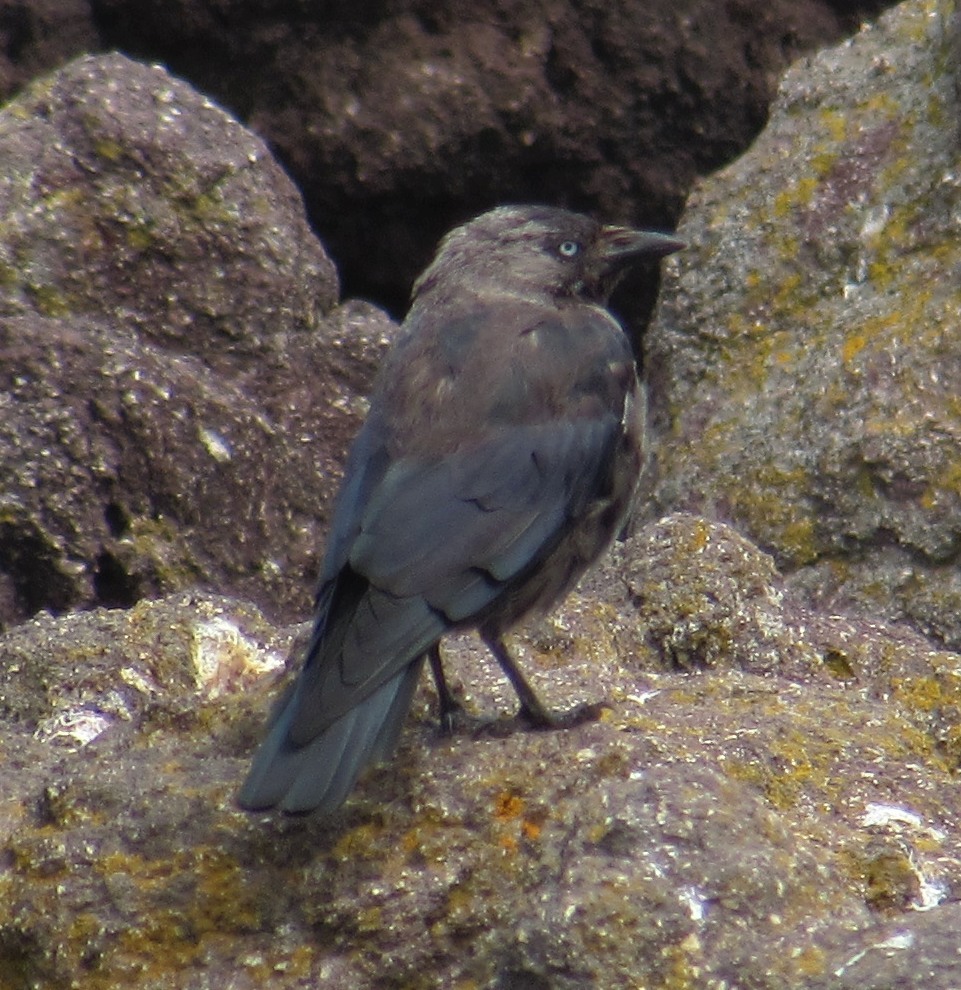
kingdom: Animalia
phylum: Chordata
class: Aves
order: Passeriformes
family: Corvidae
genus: Coloeus
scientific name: Coloeus monedula
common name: Western jackdaw
